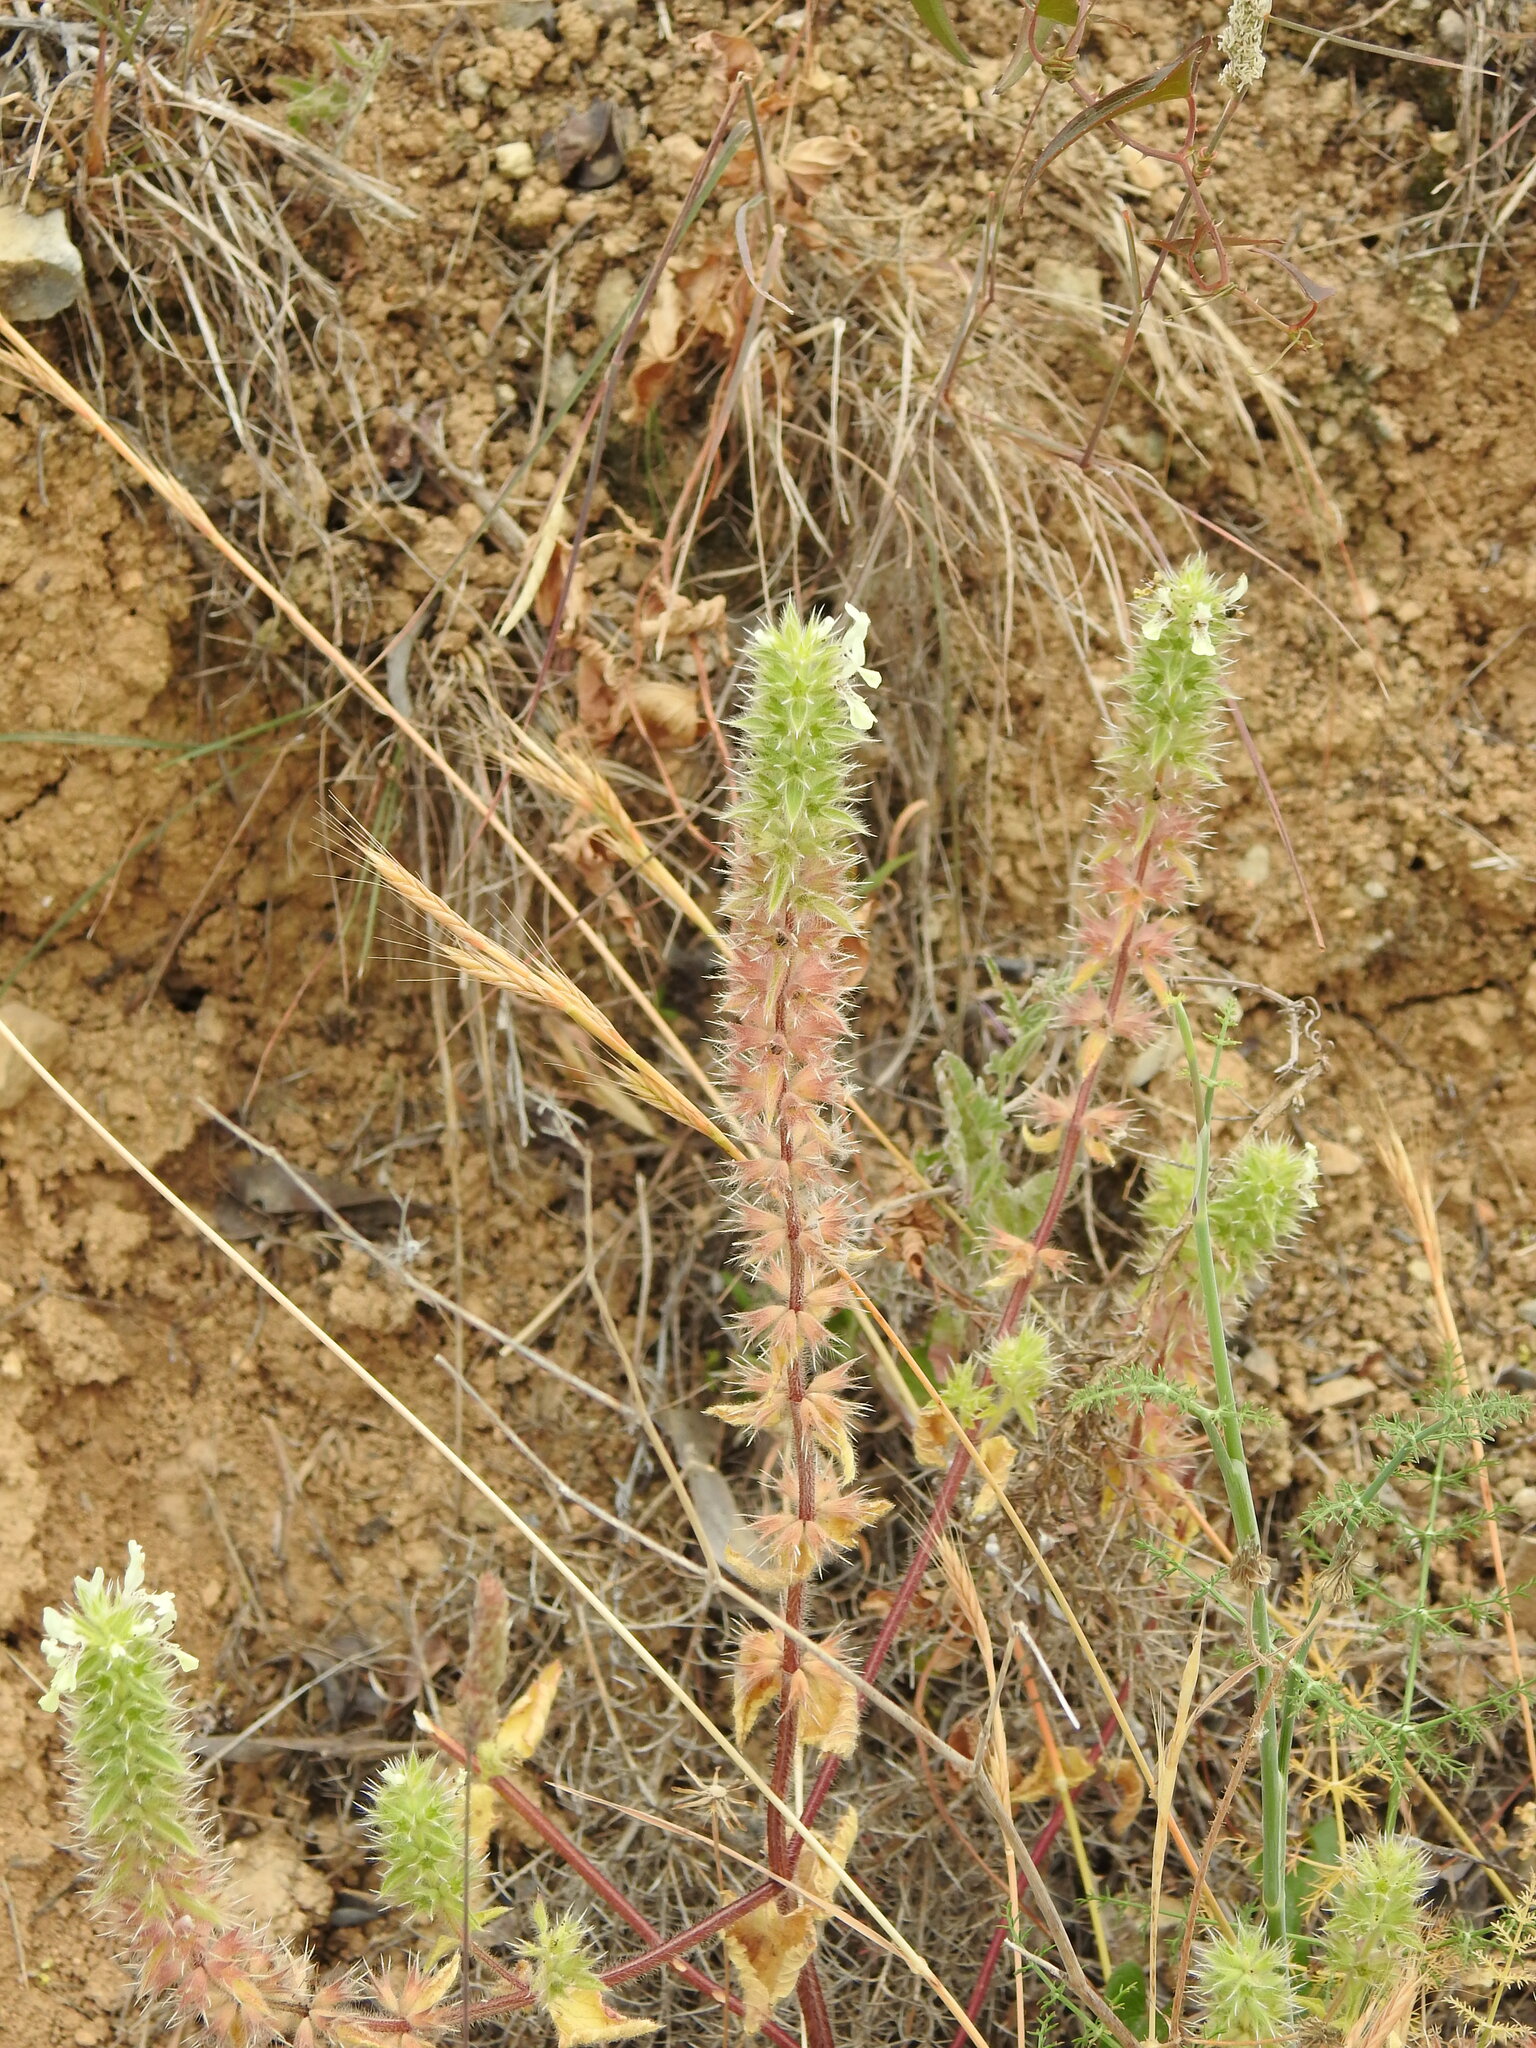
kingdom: Plantae
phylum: Tracheophyta
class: Magnoliopsida
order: Lamiales
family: Lamiaceae
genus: Stachys
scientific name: Stachys ocymastrum
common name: Italian hedgenettle
